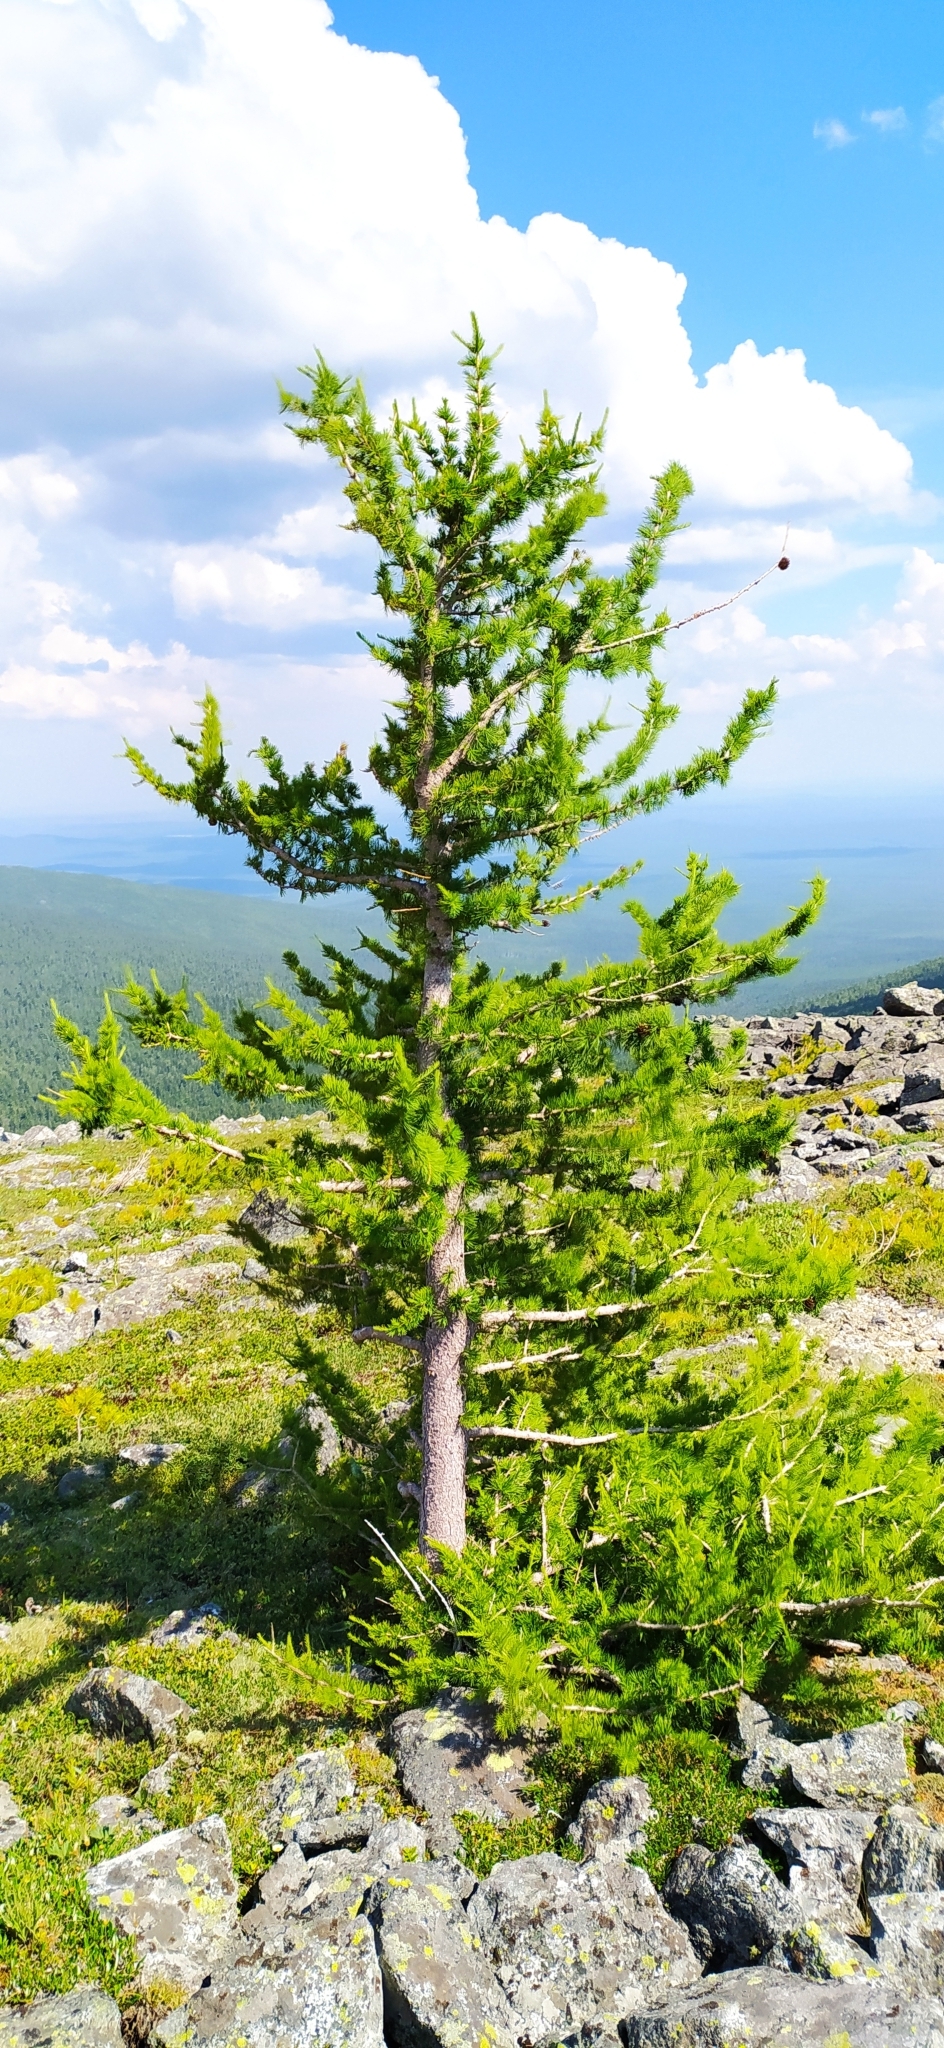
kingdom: Plantae
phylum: Tracheophyta
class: Pinopsida
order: Pinales
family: Pinaceae
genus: Larix
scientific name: Larix sibirica
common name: Siberian larch
